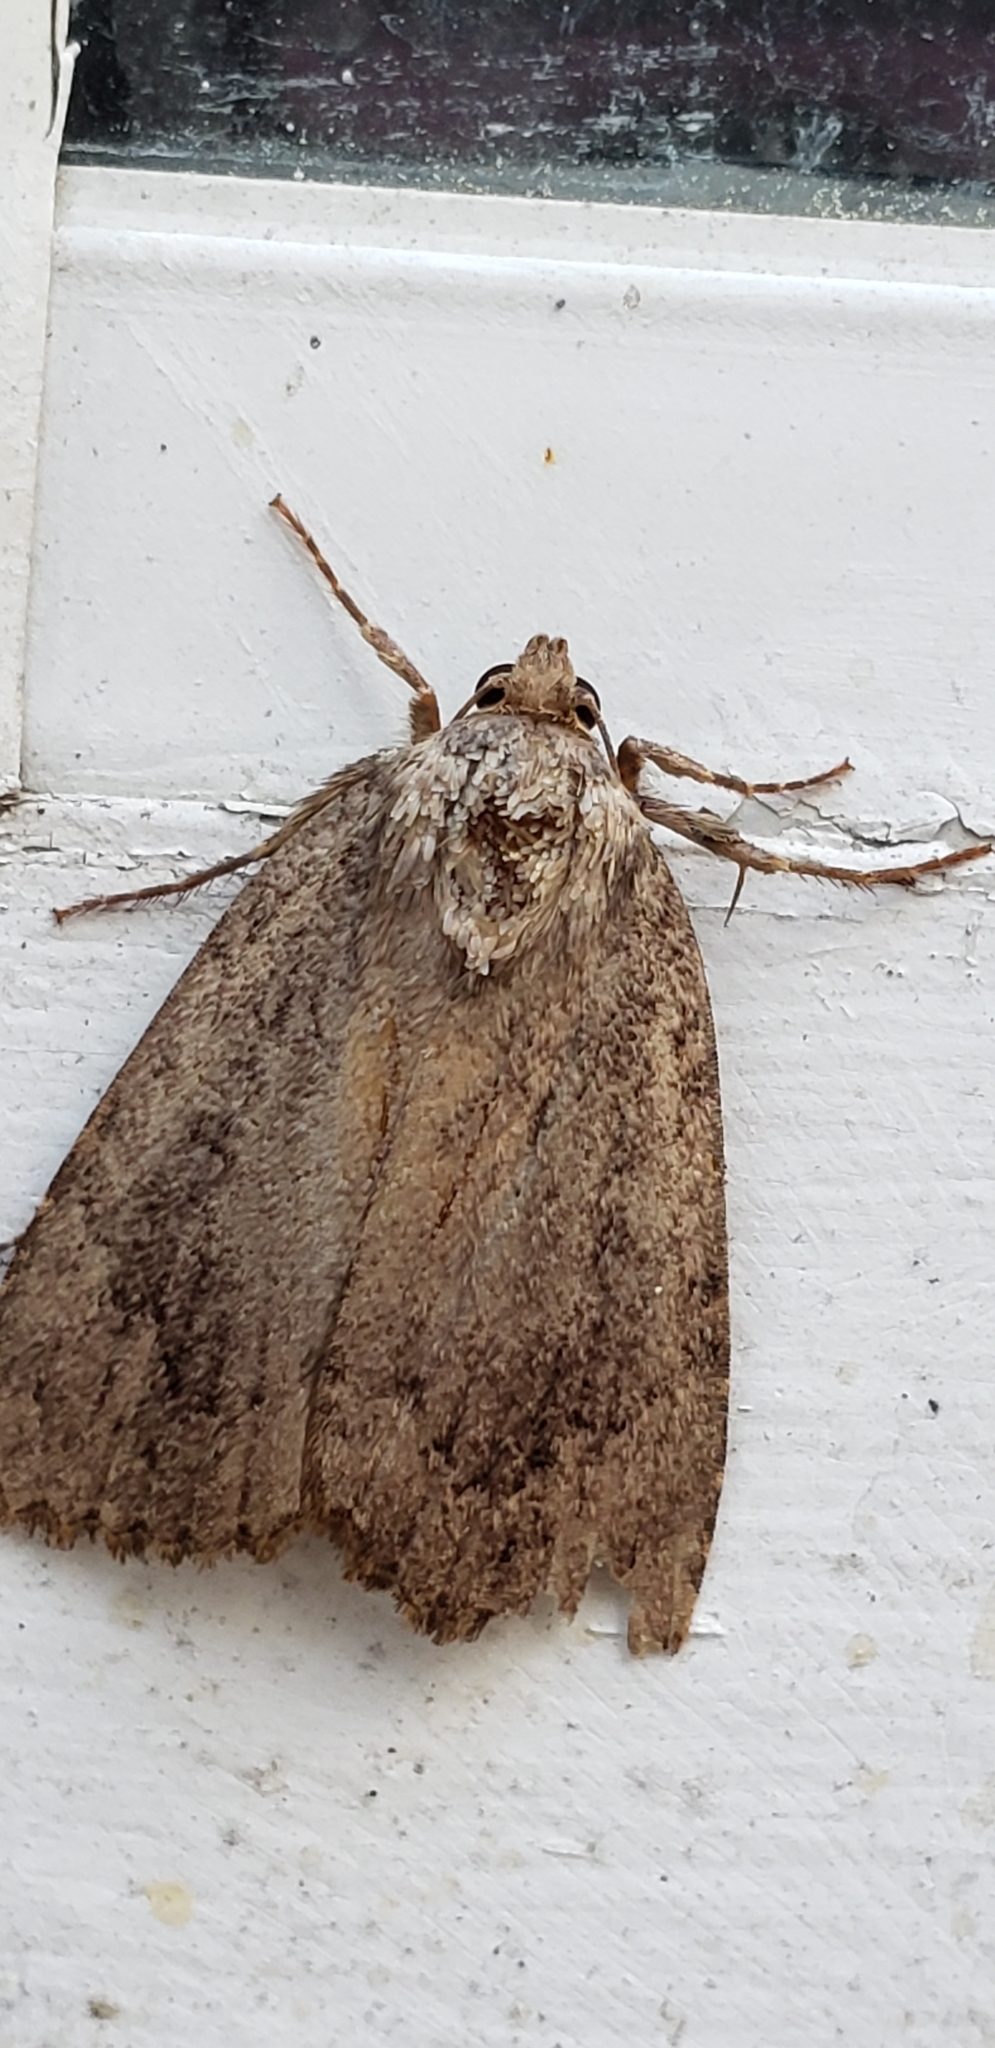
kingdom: Animalia
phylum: Arthropoda
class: Insecta
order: Lepidoptera
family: Noctuidae
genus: Amphipyra
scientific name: Amphipyra pyramidoides
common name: American copper underwing
